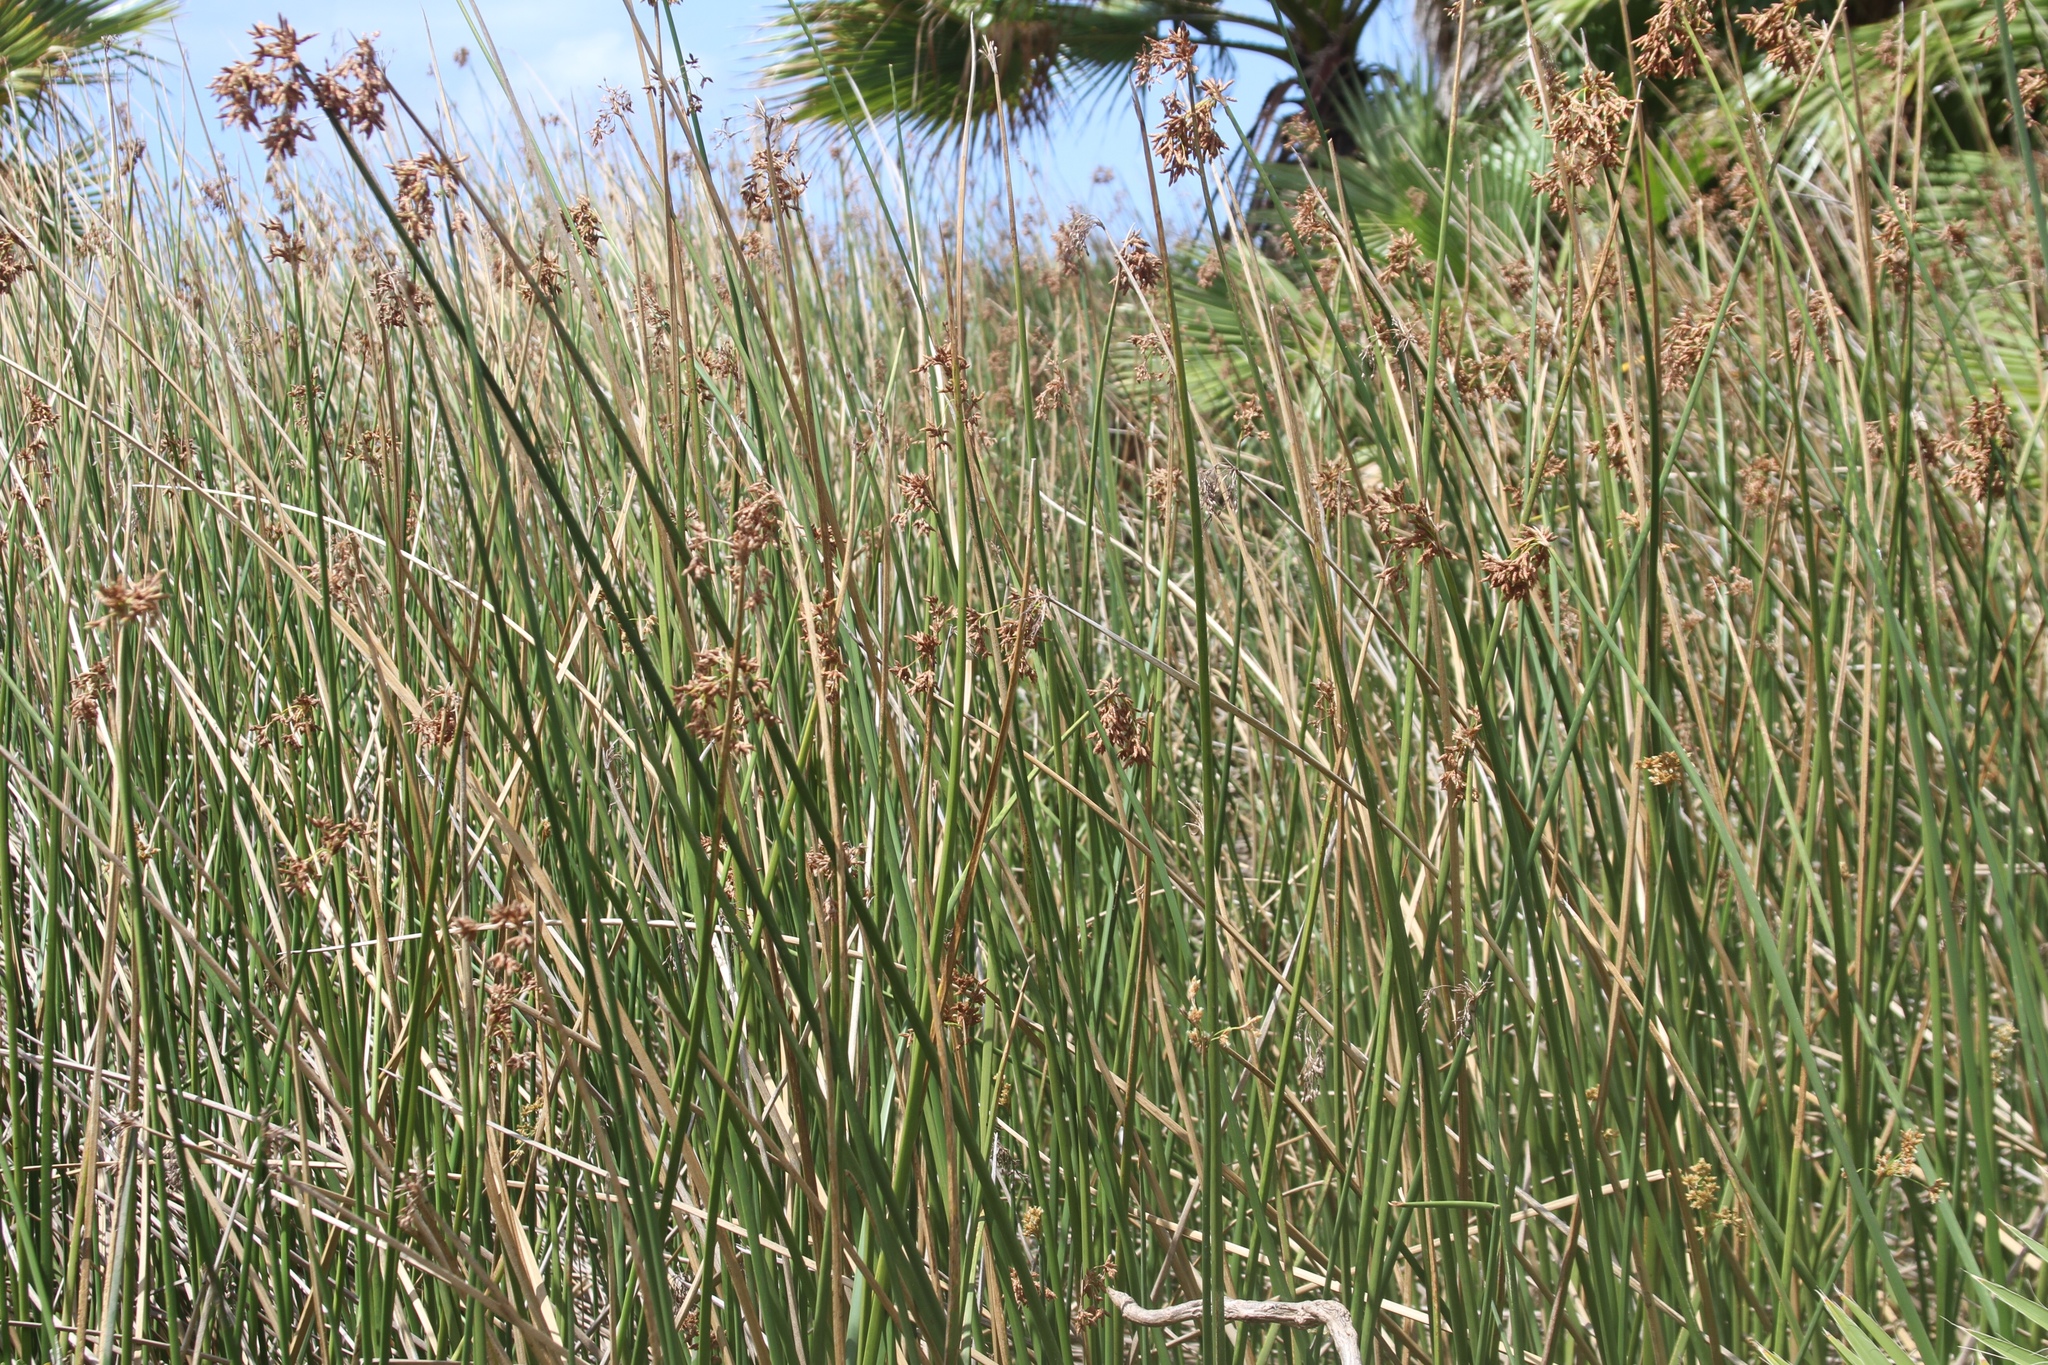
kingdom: Plantae
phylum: Tracheophyta
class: Liliopsida
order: Poales
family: Cyperaceae
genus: Schoenoplectus
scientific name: Schoenoplectus californicus
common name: California bulrush
